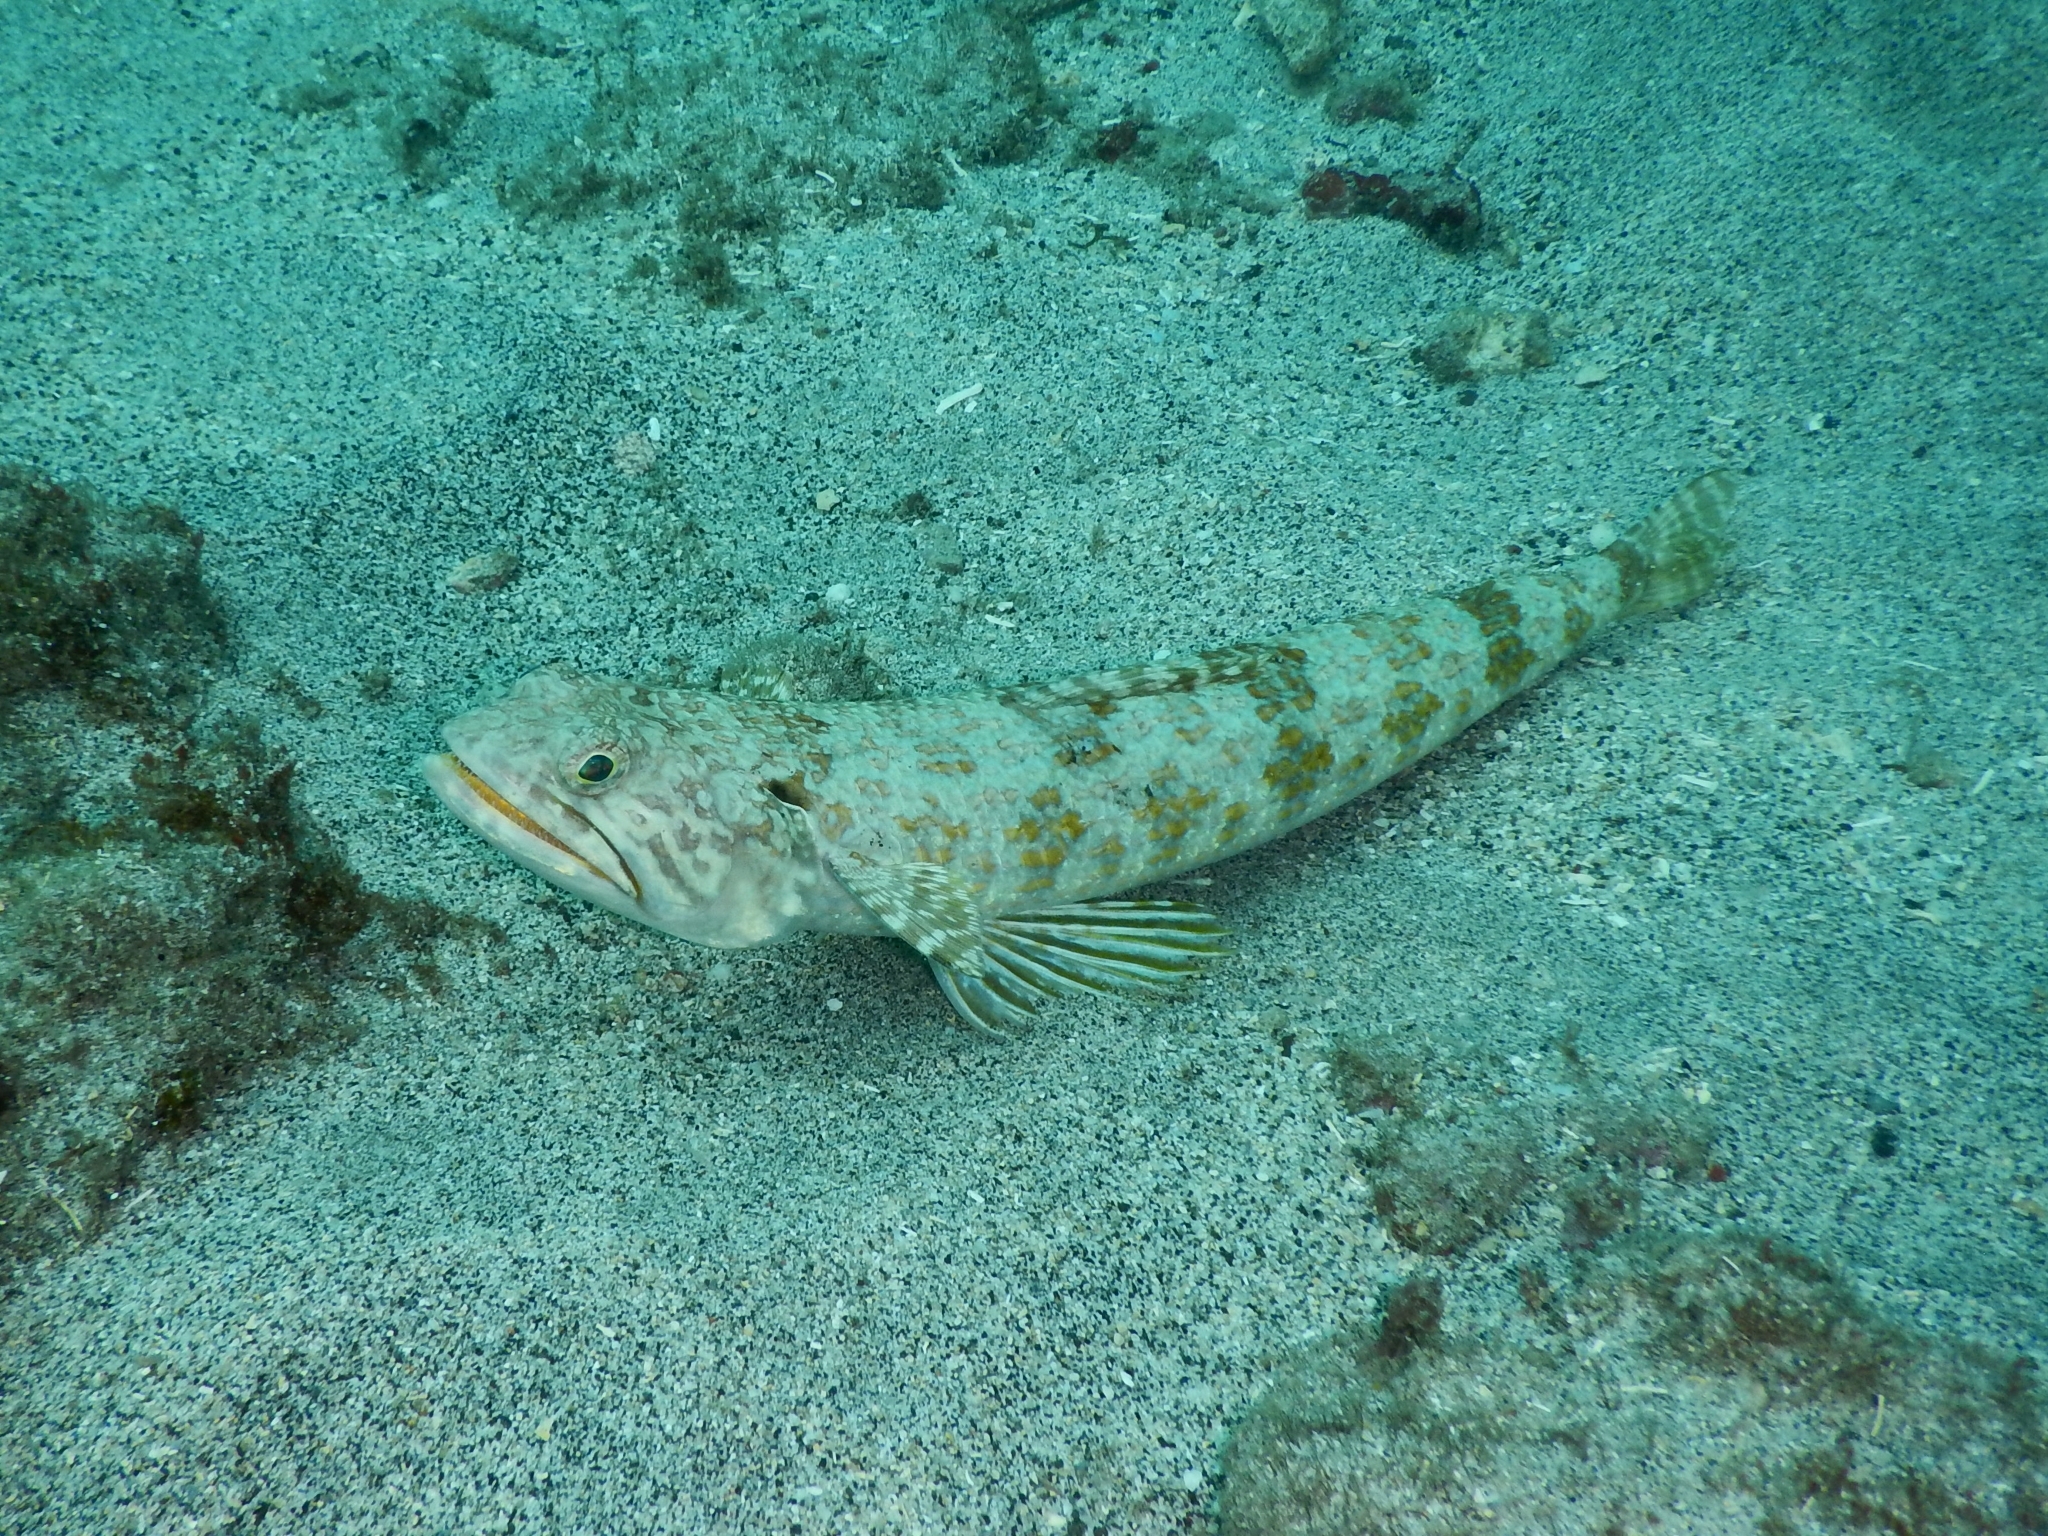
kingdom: Animalia
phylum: Chordata
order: Aulopiformes
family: Synodontidae
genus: Synodus
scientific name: Synodus intermedius
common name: Sand diver
